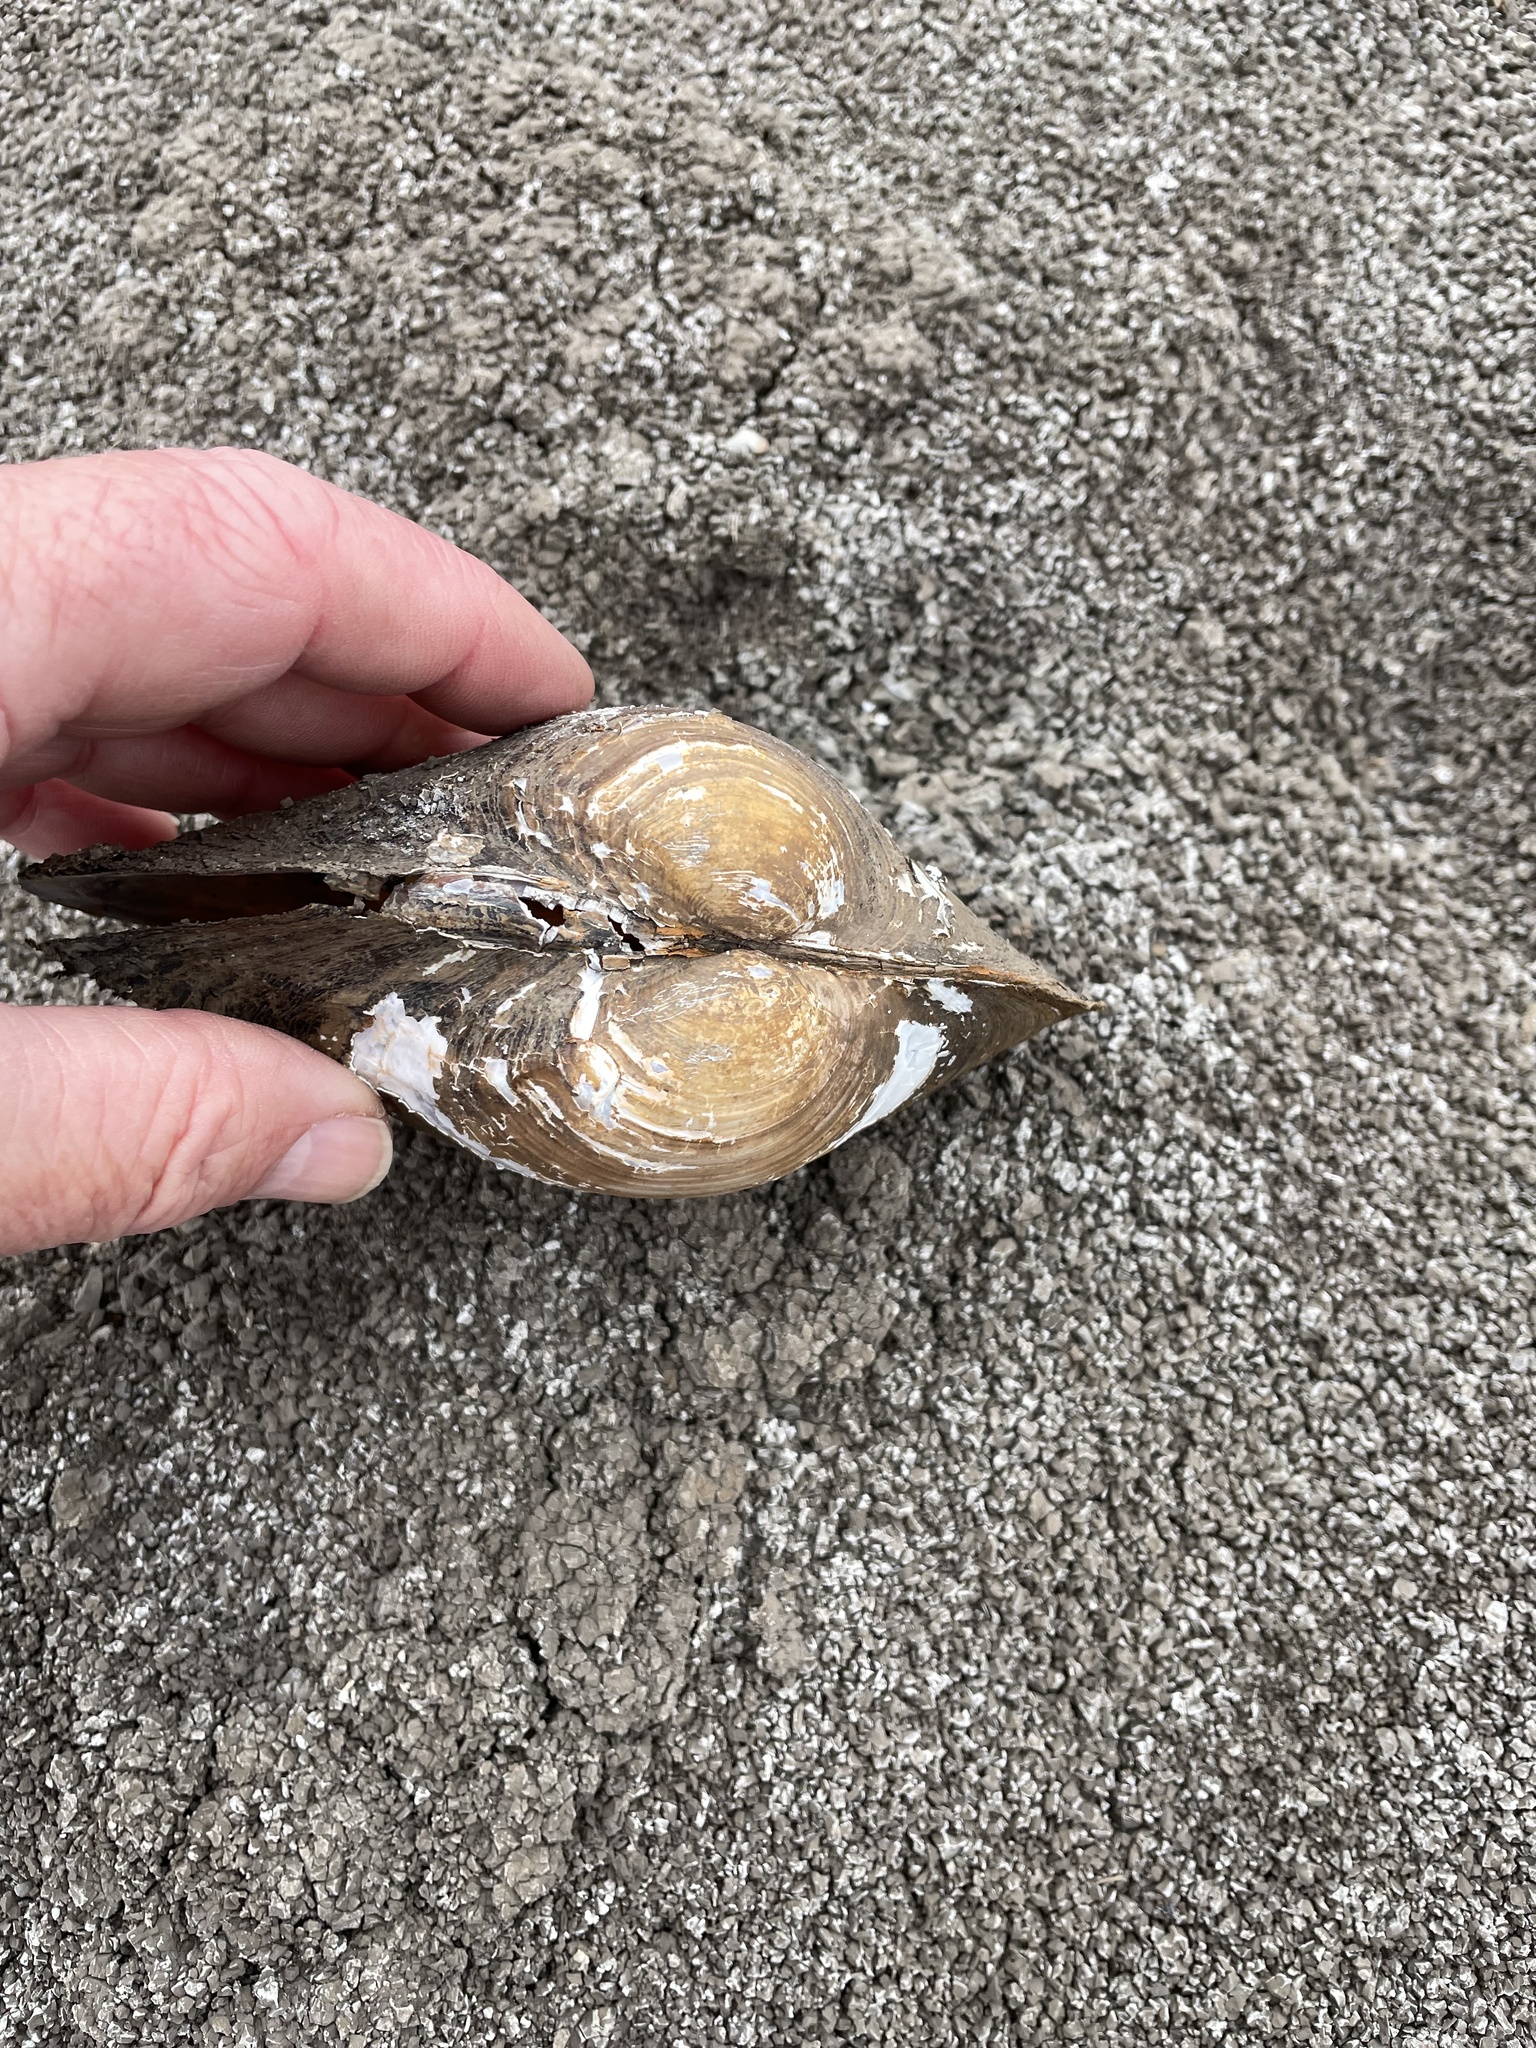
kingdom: Animalia
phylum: Mollusca
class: Bivalvia
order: Unionida
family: Unionidae
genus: Pyganodon
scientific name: Pyganodon grandis
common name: Giant floater
